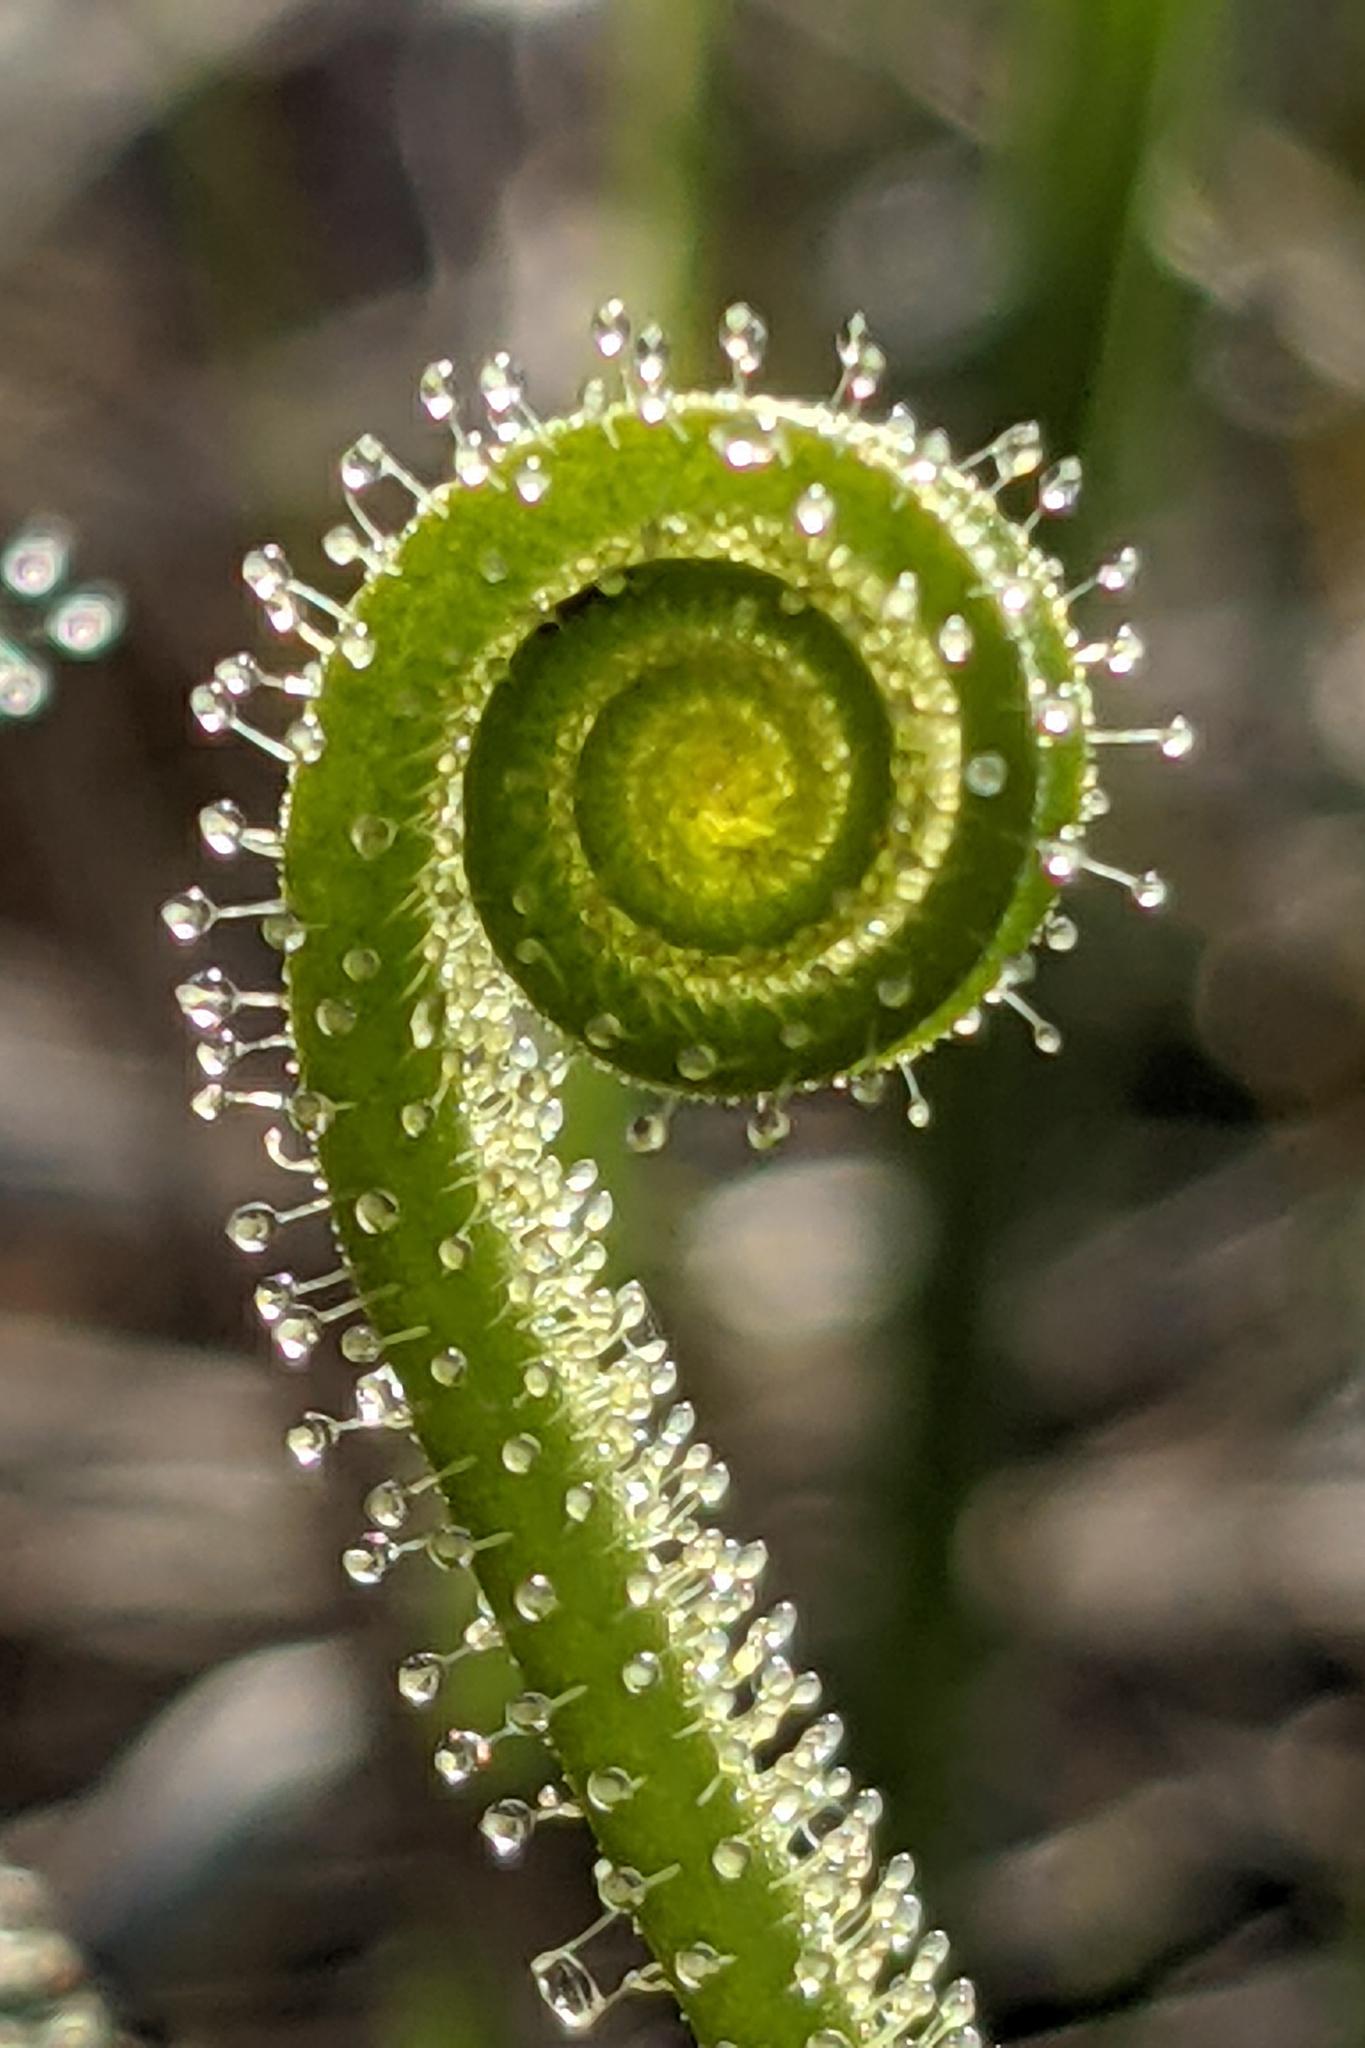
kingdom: Plantae
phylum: Tracheophyta
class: Magnoliopsida
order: Caryophyllales
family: Droseraceae
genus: Drosera
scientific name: Drosera filiformis
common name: Dew-thread
